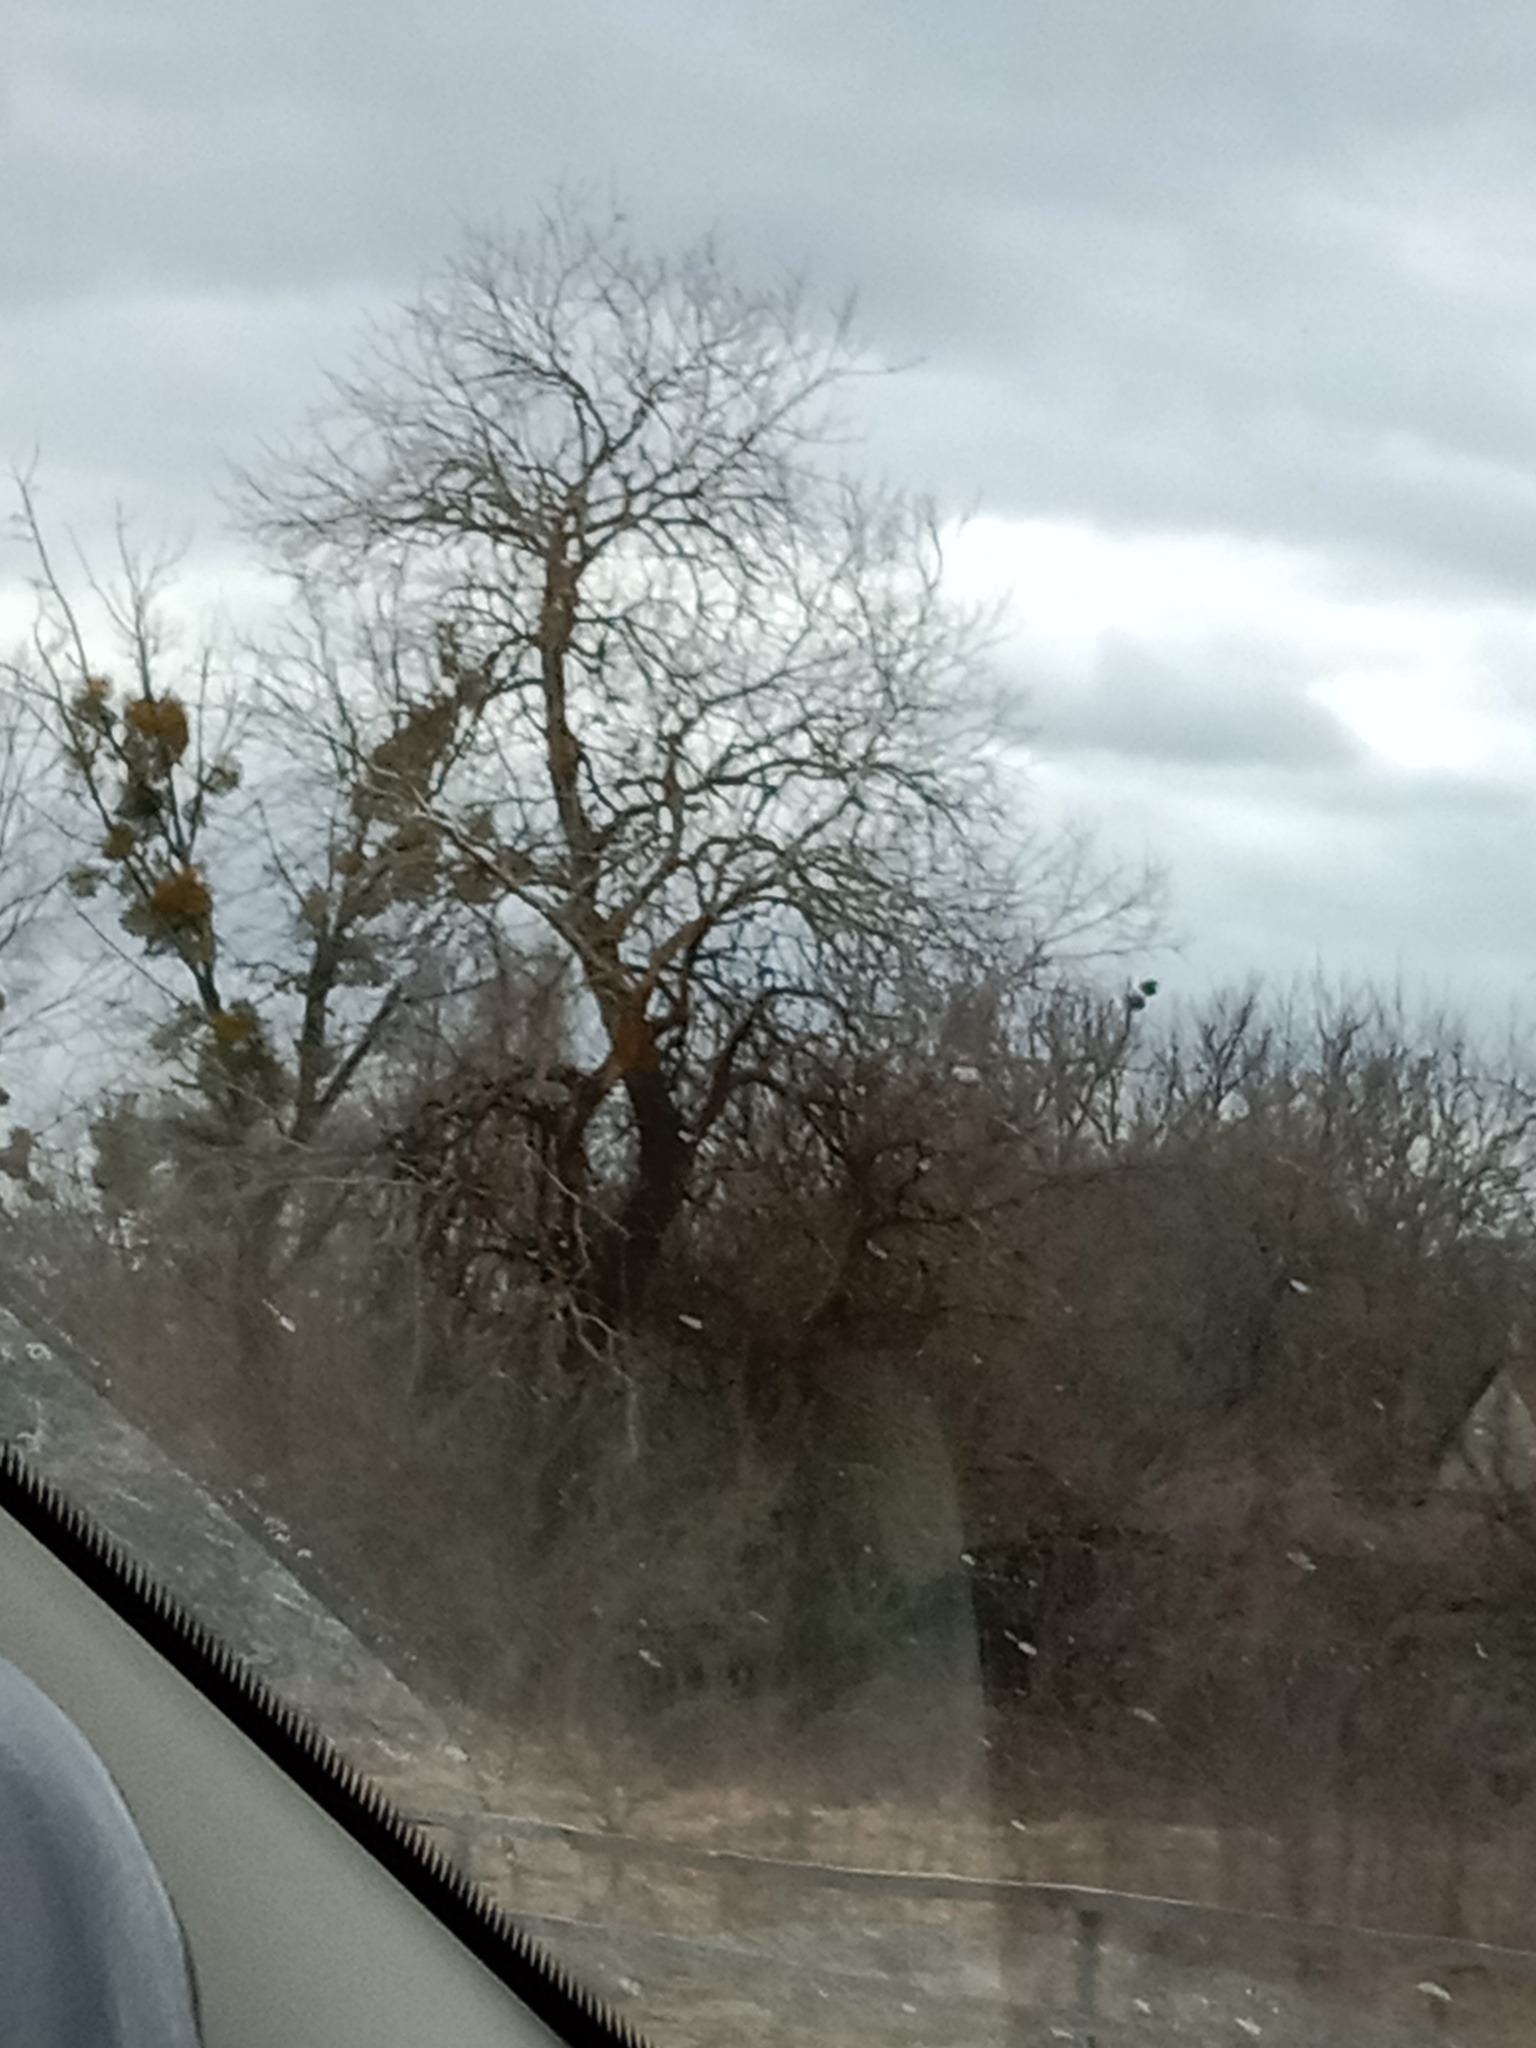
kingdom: Plantae
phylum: Tracheophyta
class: Magnoliopsida
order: Santalales
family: Viscaceae
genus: Viscum
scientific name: Viscum album
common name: Mistletoe
